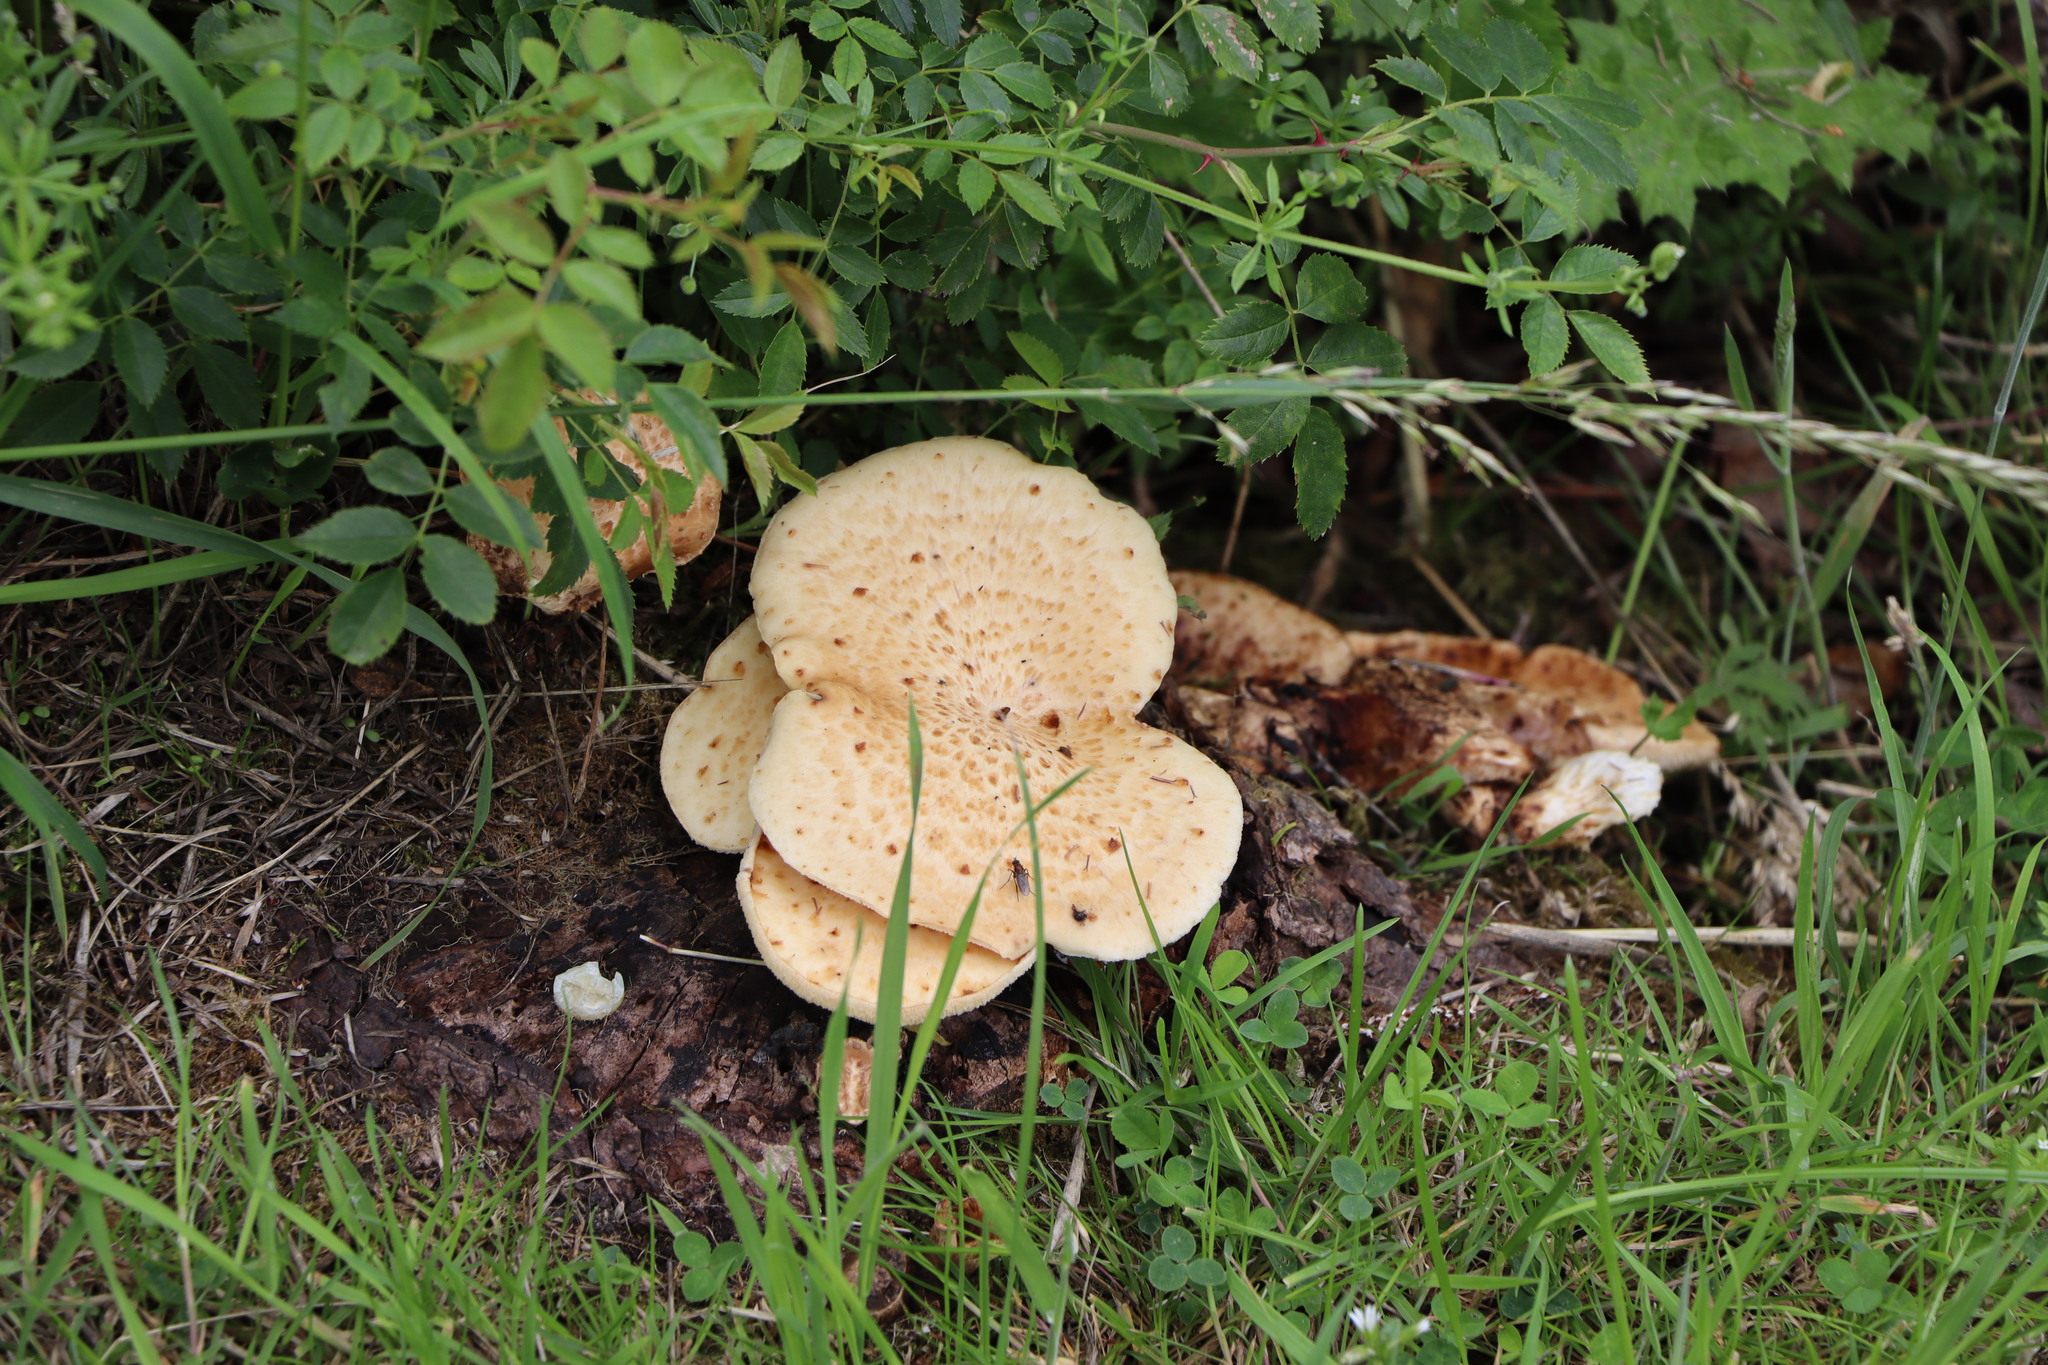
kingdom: Fungi
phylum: Basidiomycota
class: Agaricomycetes
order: Polyporales
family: Polyporaceae
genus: Cerioporus
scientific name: Cerioporus squamosus
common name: Dryad's saddle
